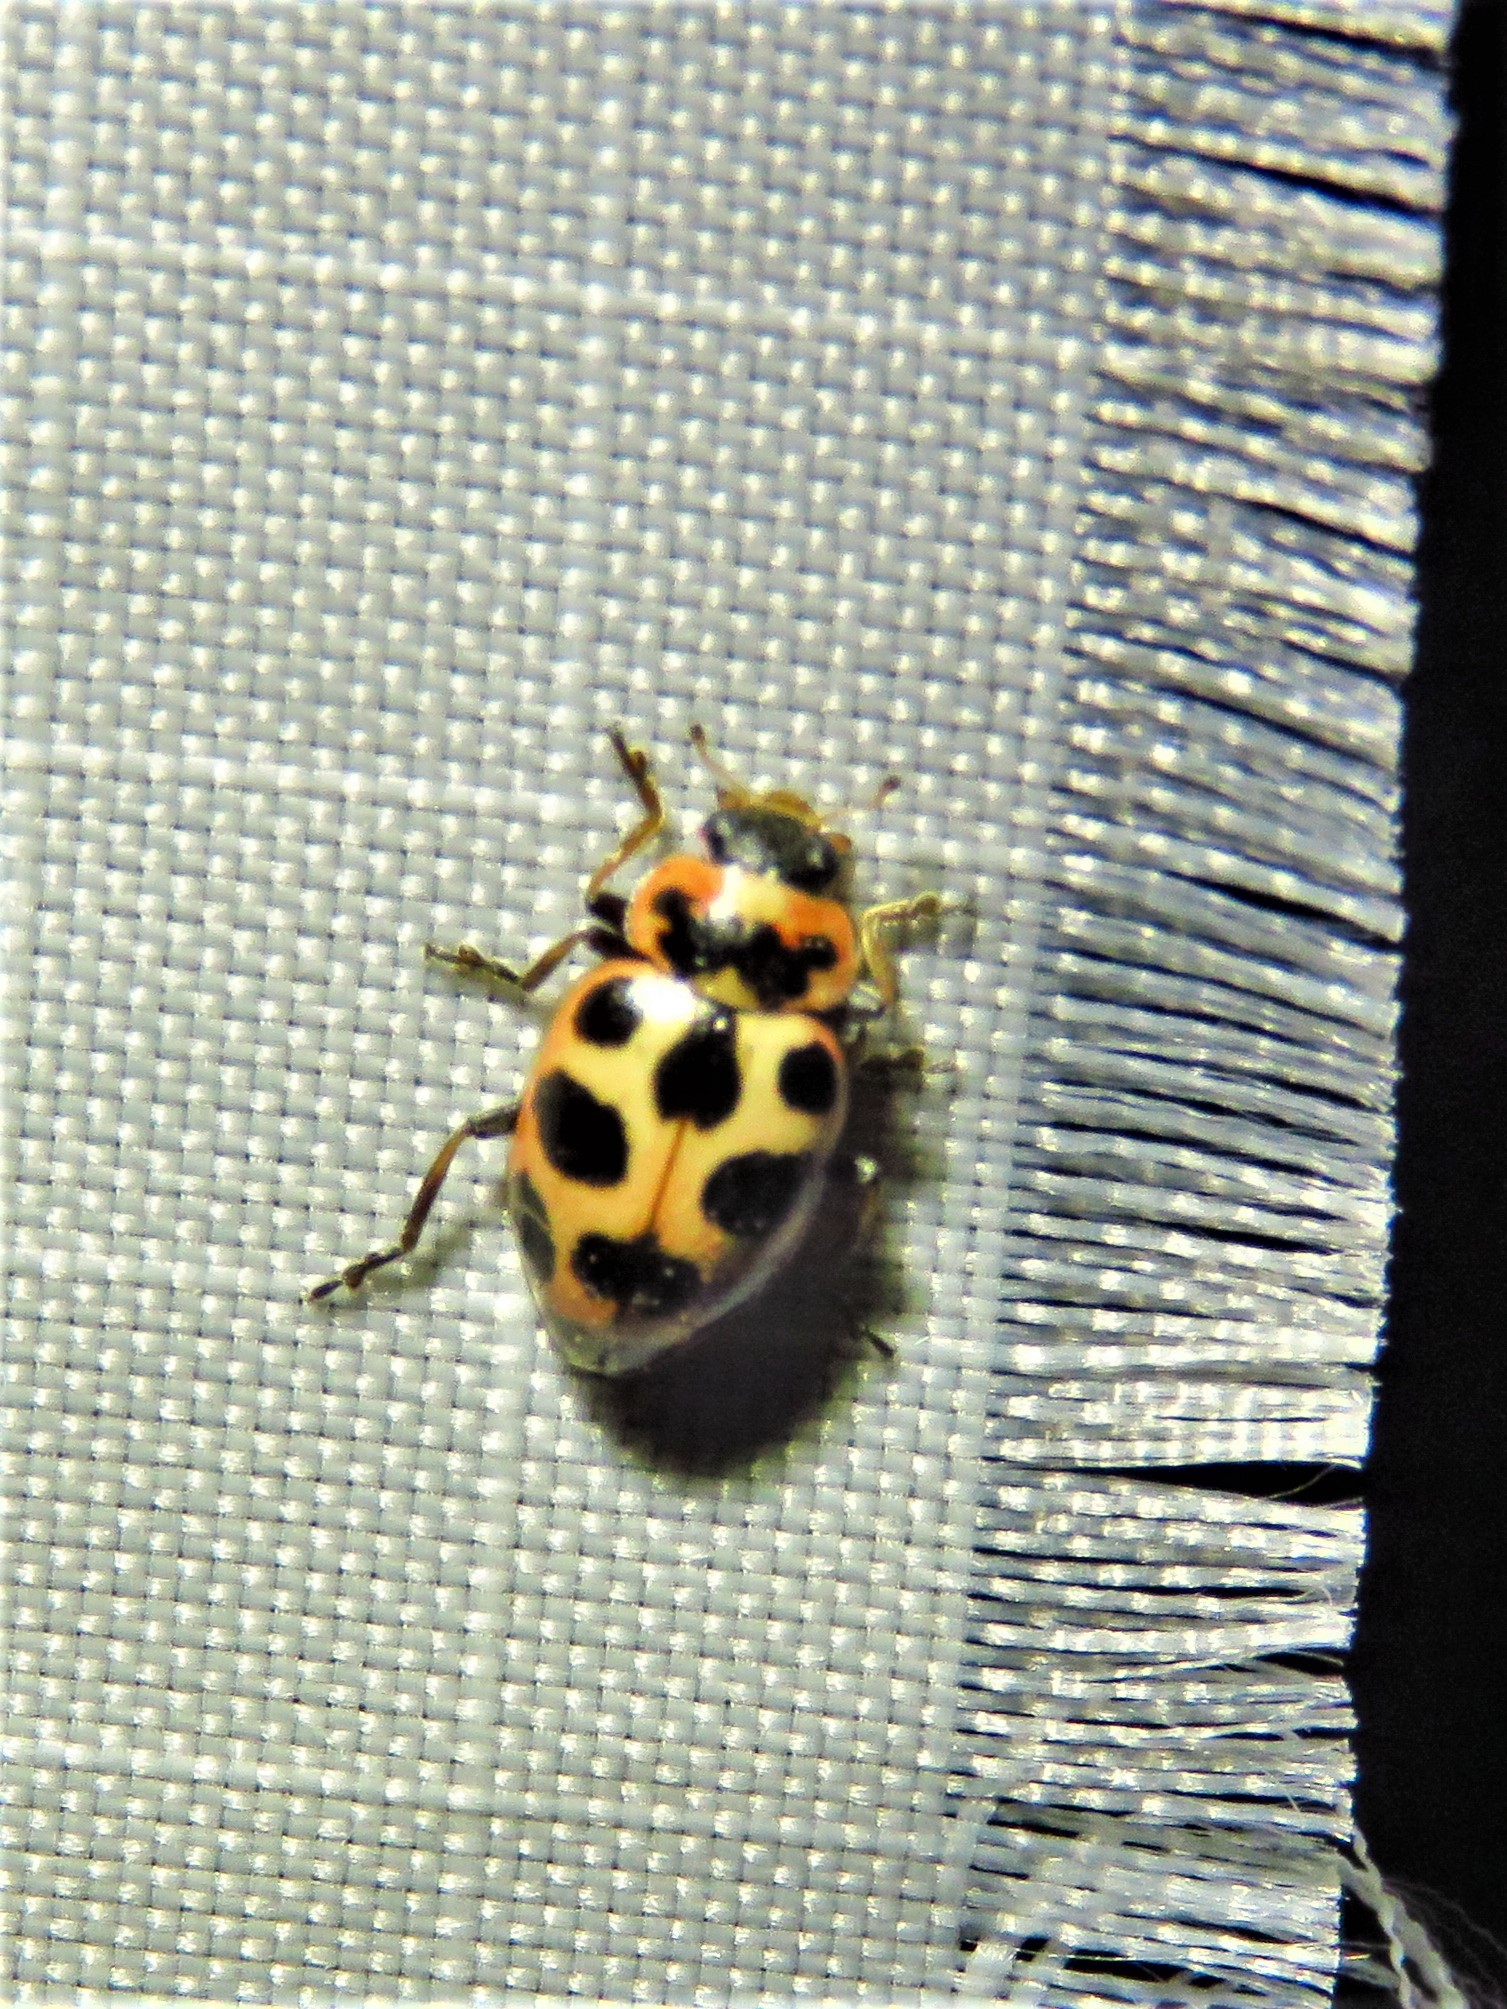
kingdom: Animalia
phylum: Arthropoda
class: Insecta
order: Coleoptera
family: Coccinellidae
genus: Naemia
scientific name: Naemia seriata
